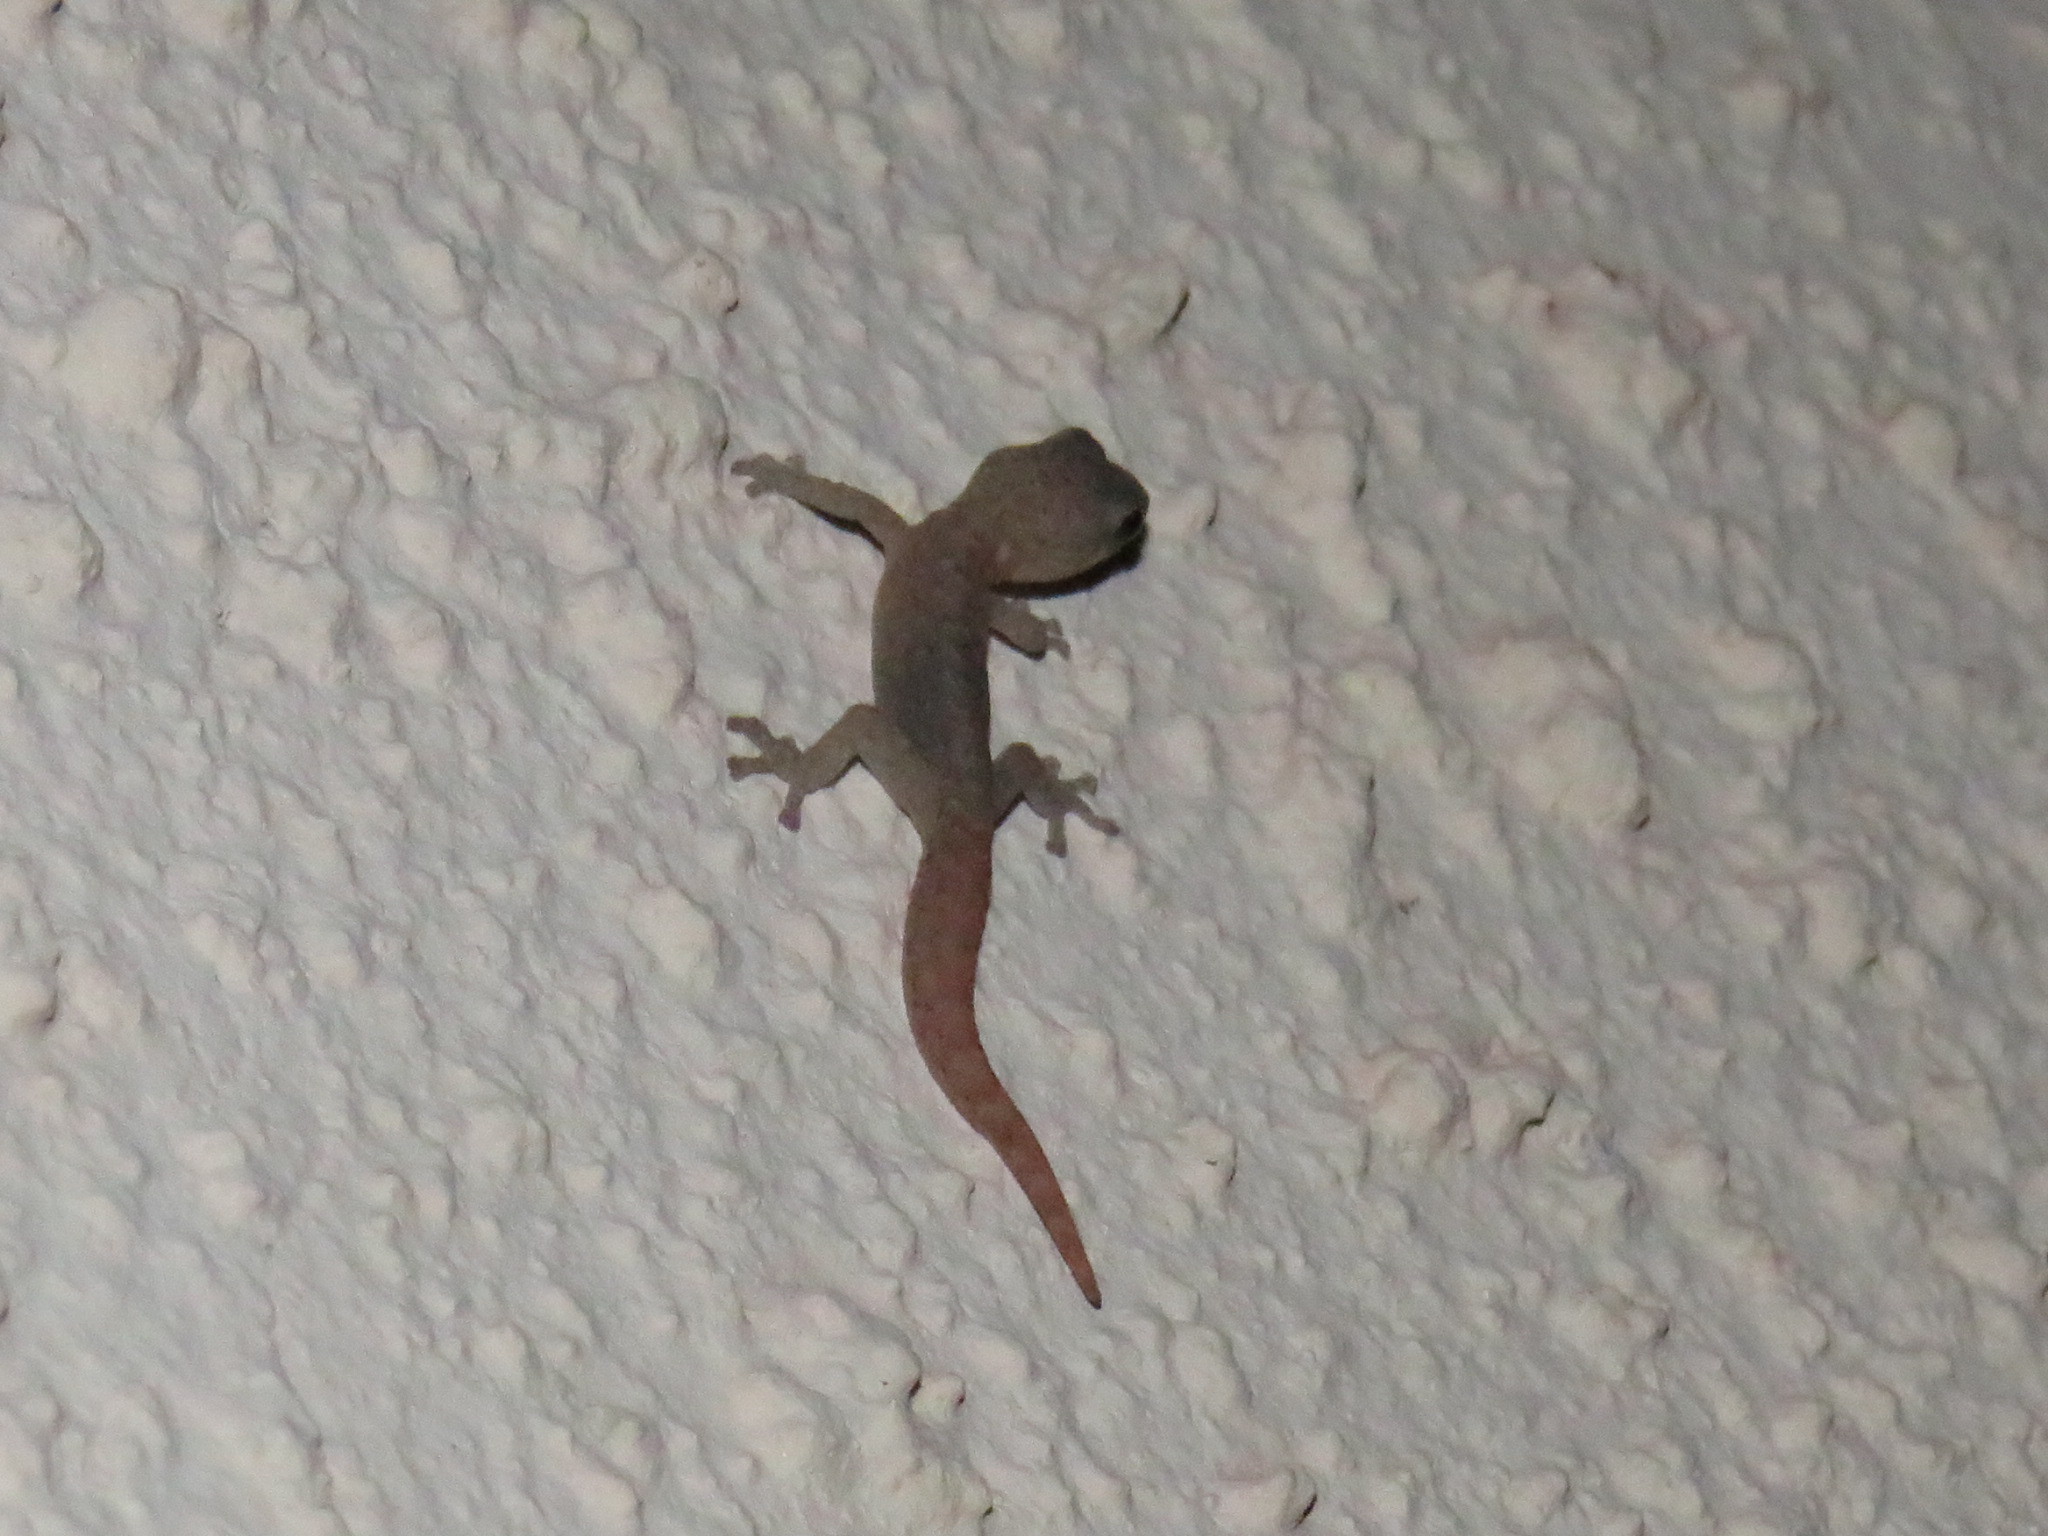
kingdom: Animalia
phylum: Chordata
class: Squamata
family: Gekkonidae
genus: Afrogecko
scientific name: Afrogecko porphyreus
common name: Marbled leaf-toed gecko
